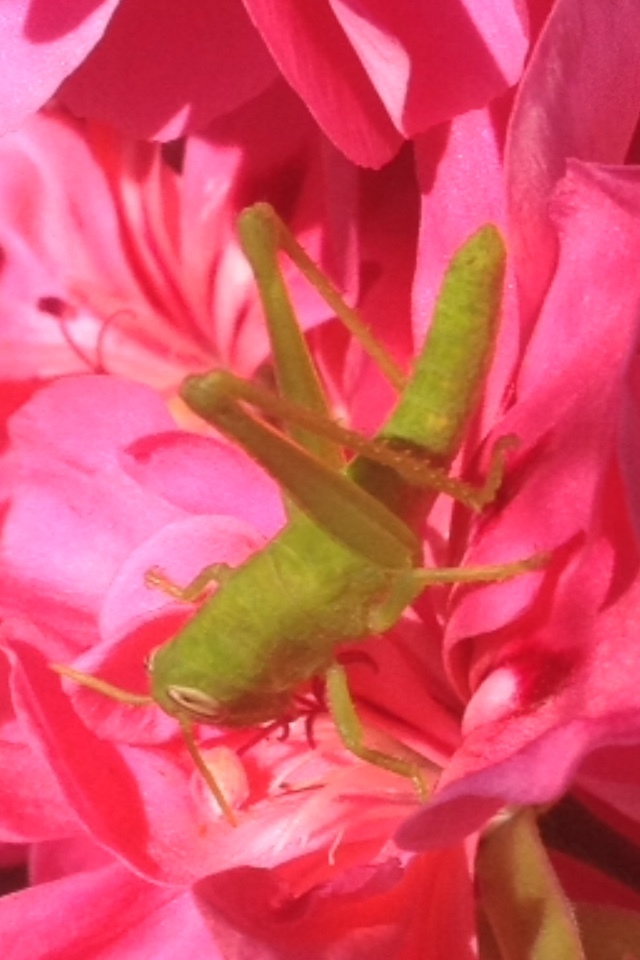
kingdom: Animalia
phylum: Arthropoda
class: Insecta
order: Orthoptera
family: Acrididae
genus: Schistocerca
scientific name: Schistocerca nitens
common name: Vagrant grasshopper
